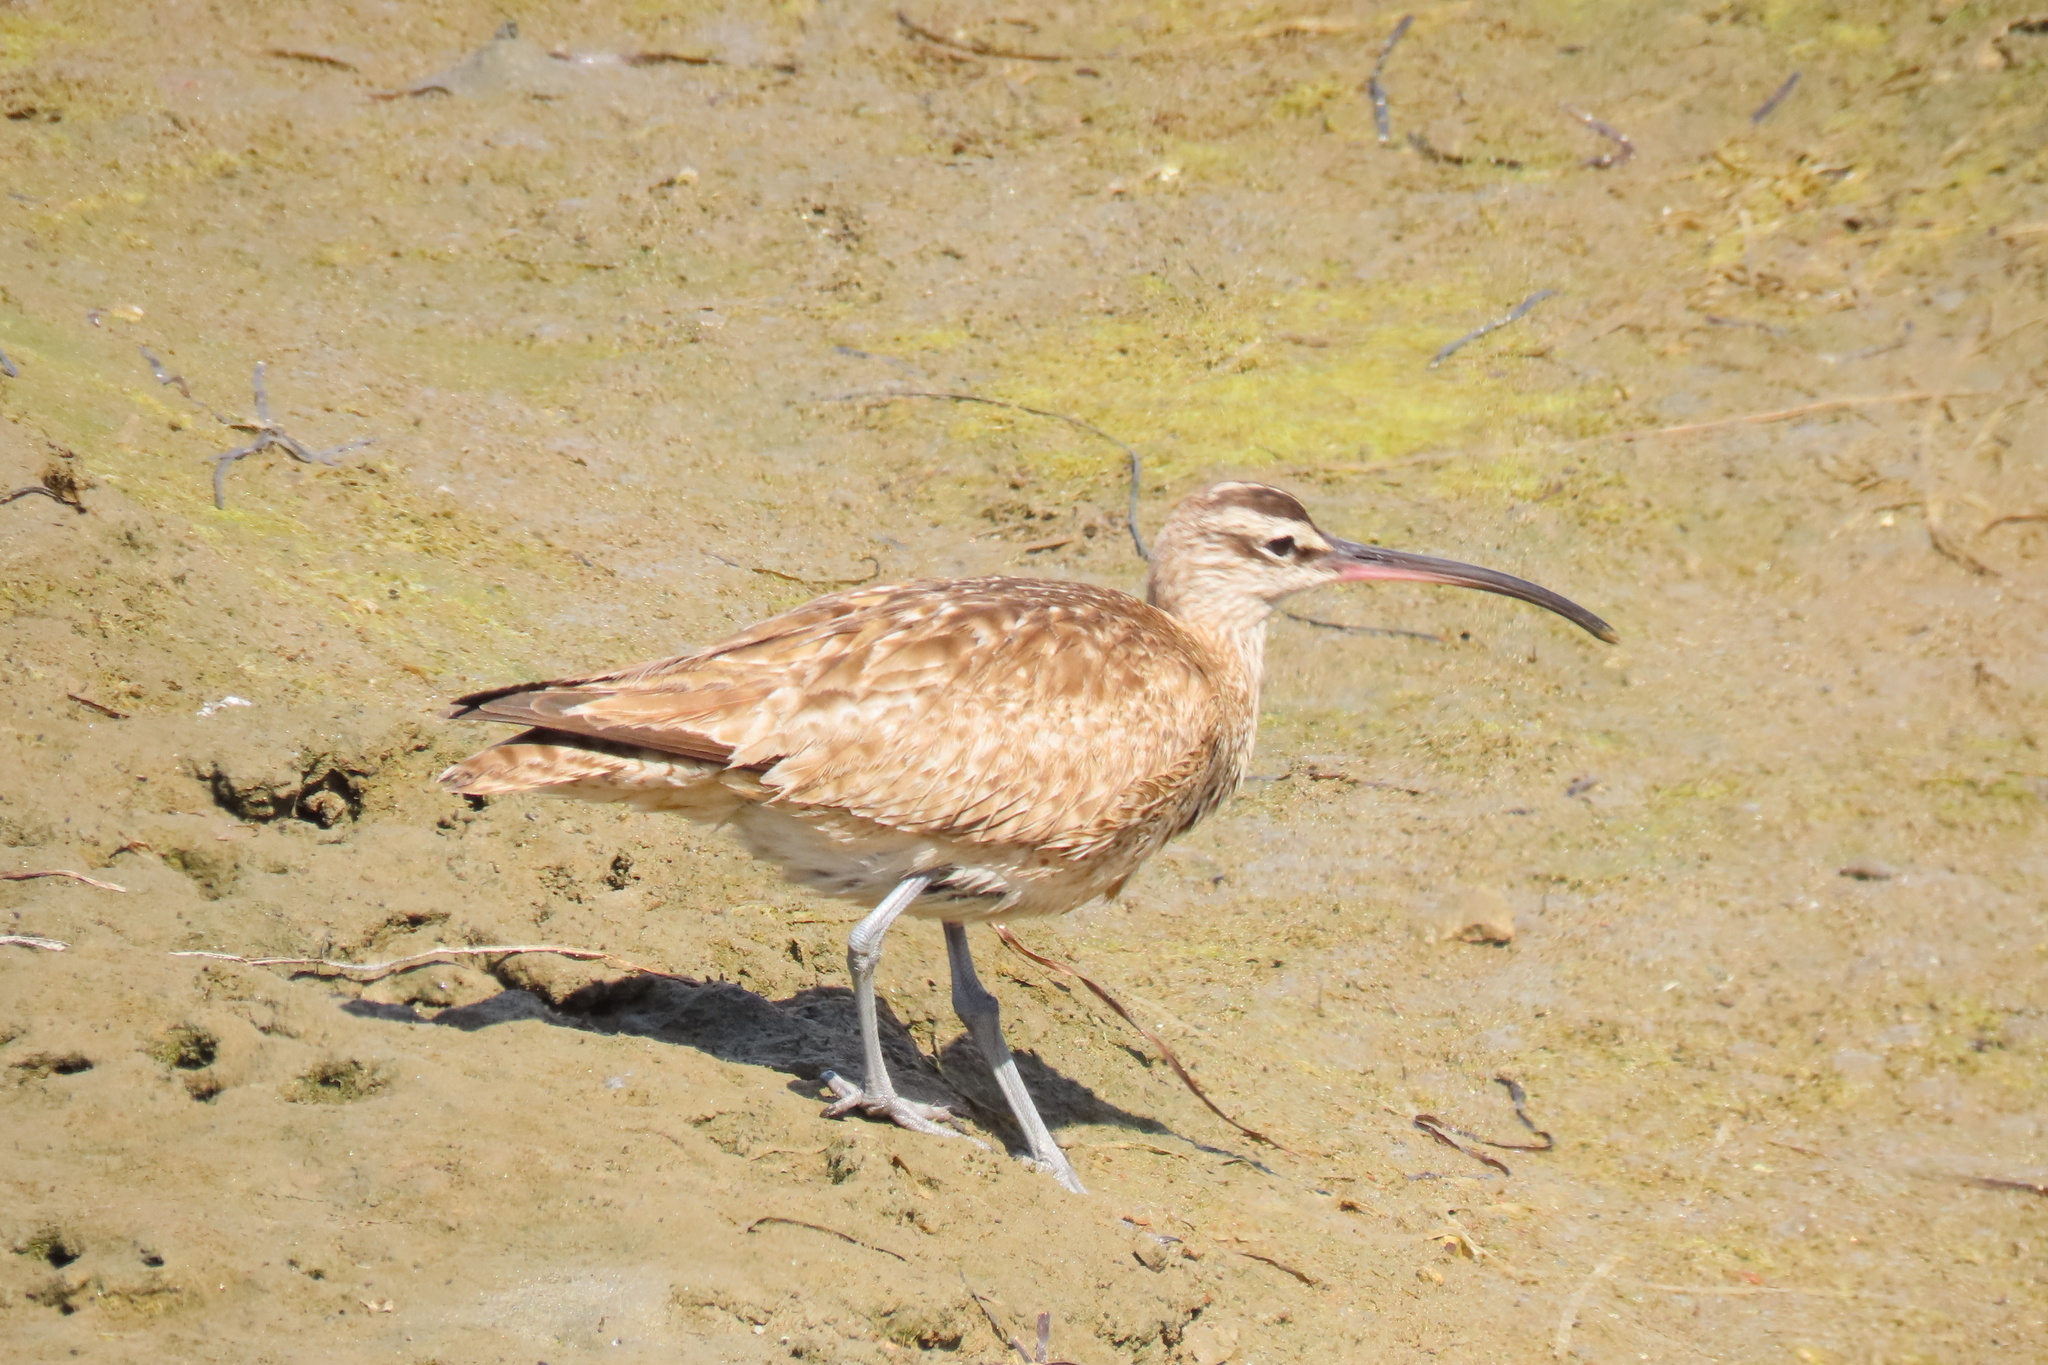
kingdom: Animalia
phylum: Chordata
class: Aves
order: Charadriiformes
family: Scolopacidae
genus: Numenius
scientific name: Numenius phaeopus
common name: Whimbrel
